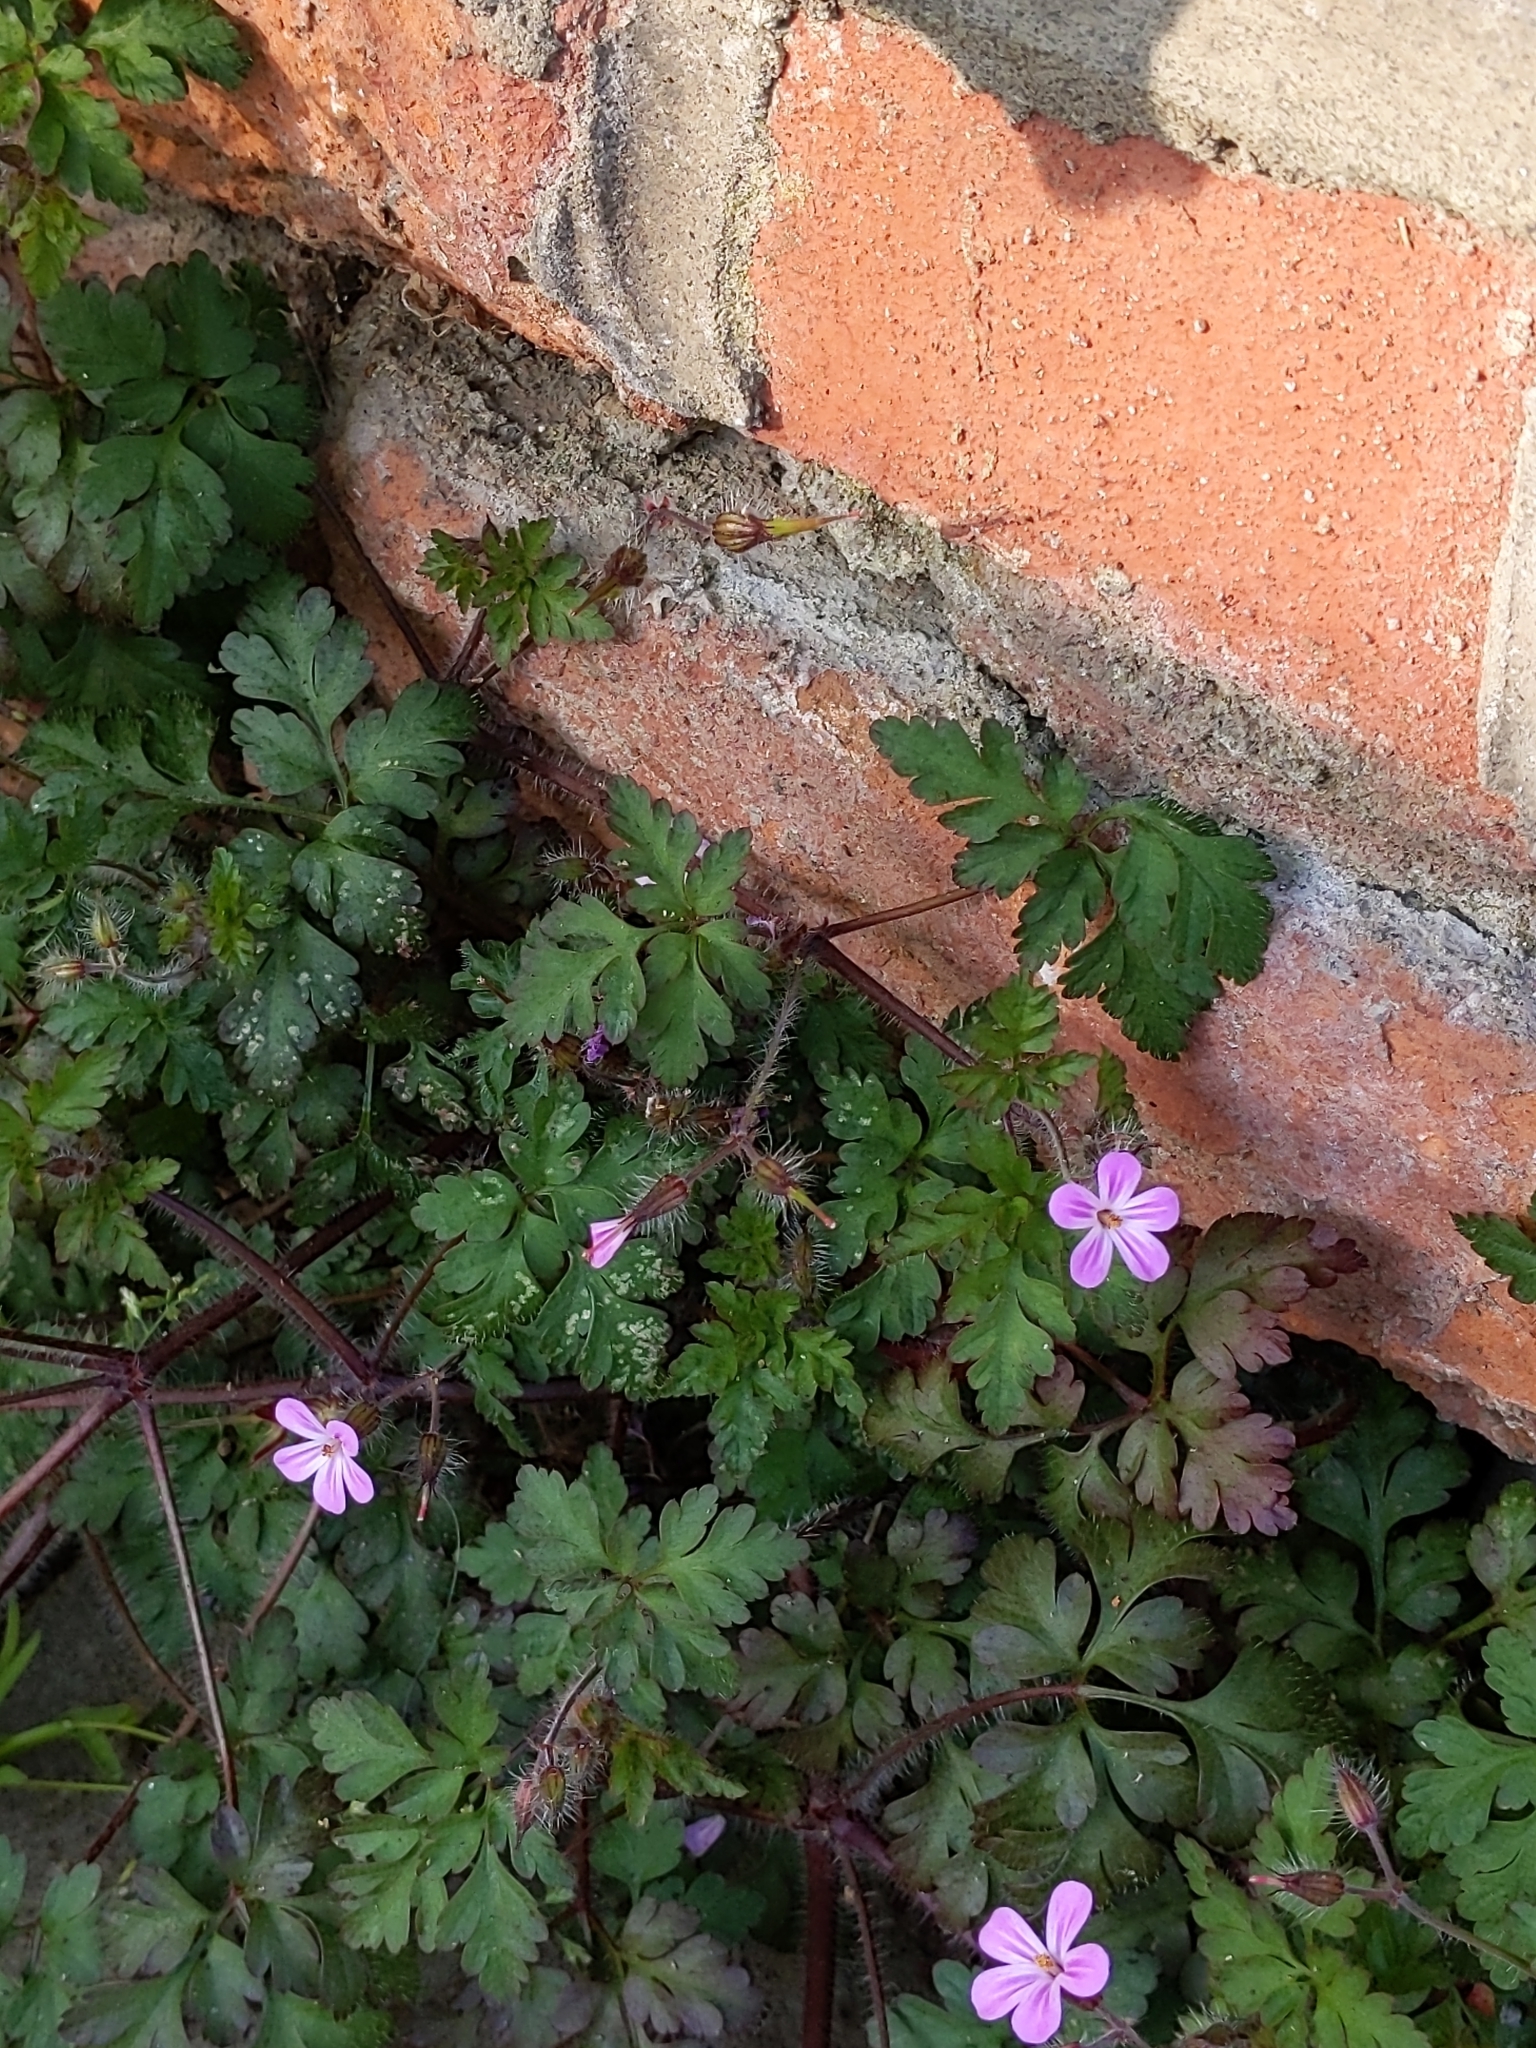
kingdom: Plantae
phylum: Tracheophyta
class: Magnoliopsida
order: Geraniales
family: Geraniaceae
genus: Geranium
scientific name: Geranium robertianum
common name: Herb-robert
